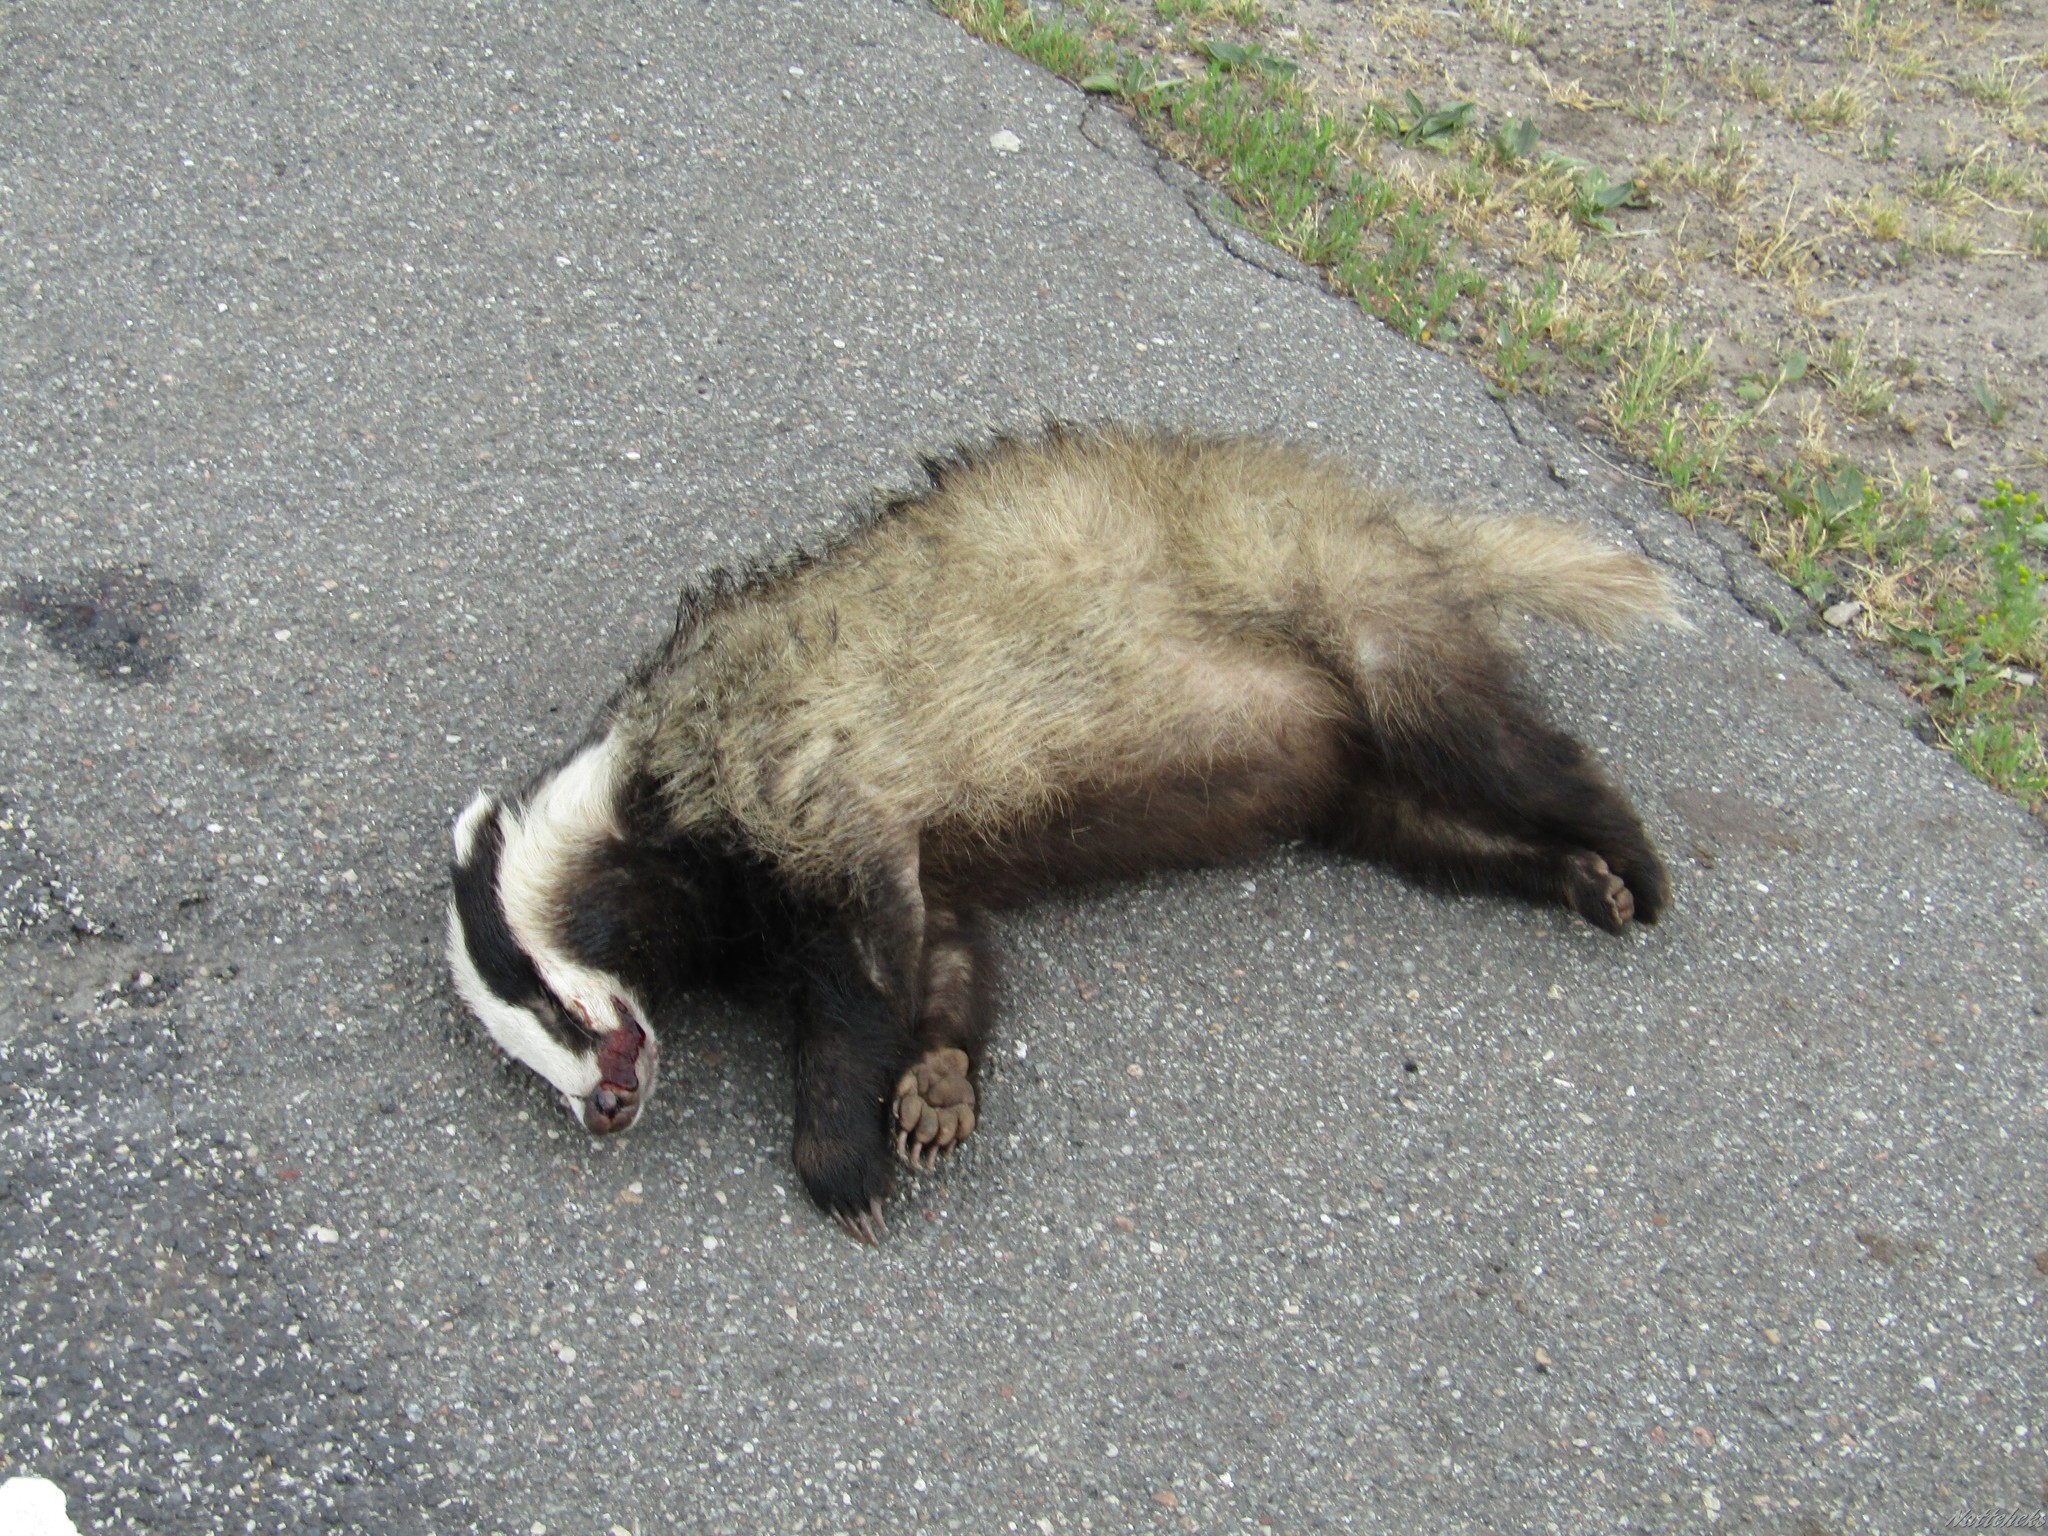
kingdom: Animalia
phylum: Chordata
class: Mammalia
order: Carnivora
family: Mustelidae
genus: Meles
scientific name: Meles meles
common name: Eurasian badger
